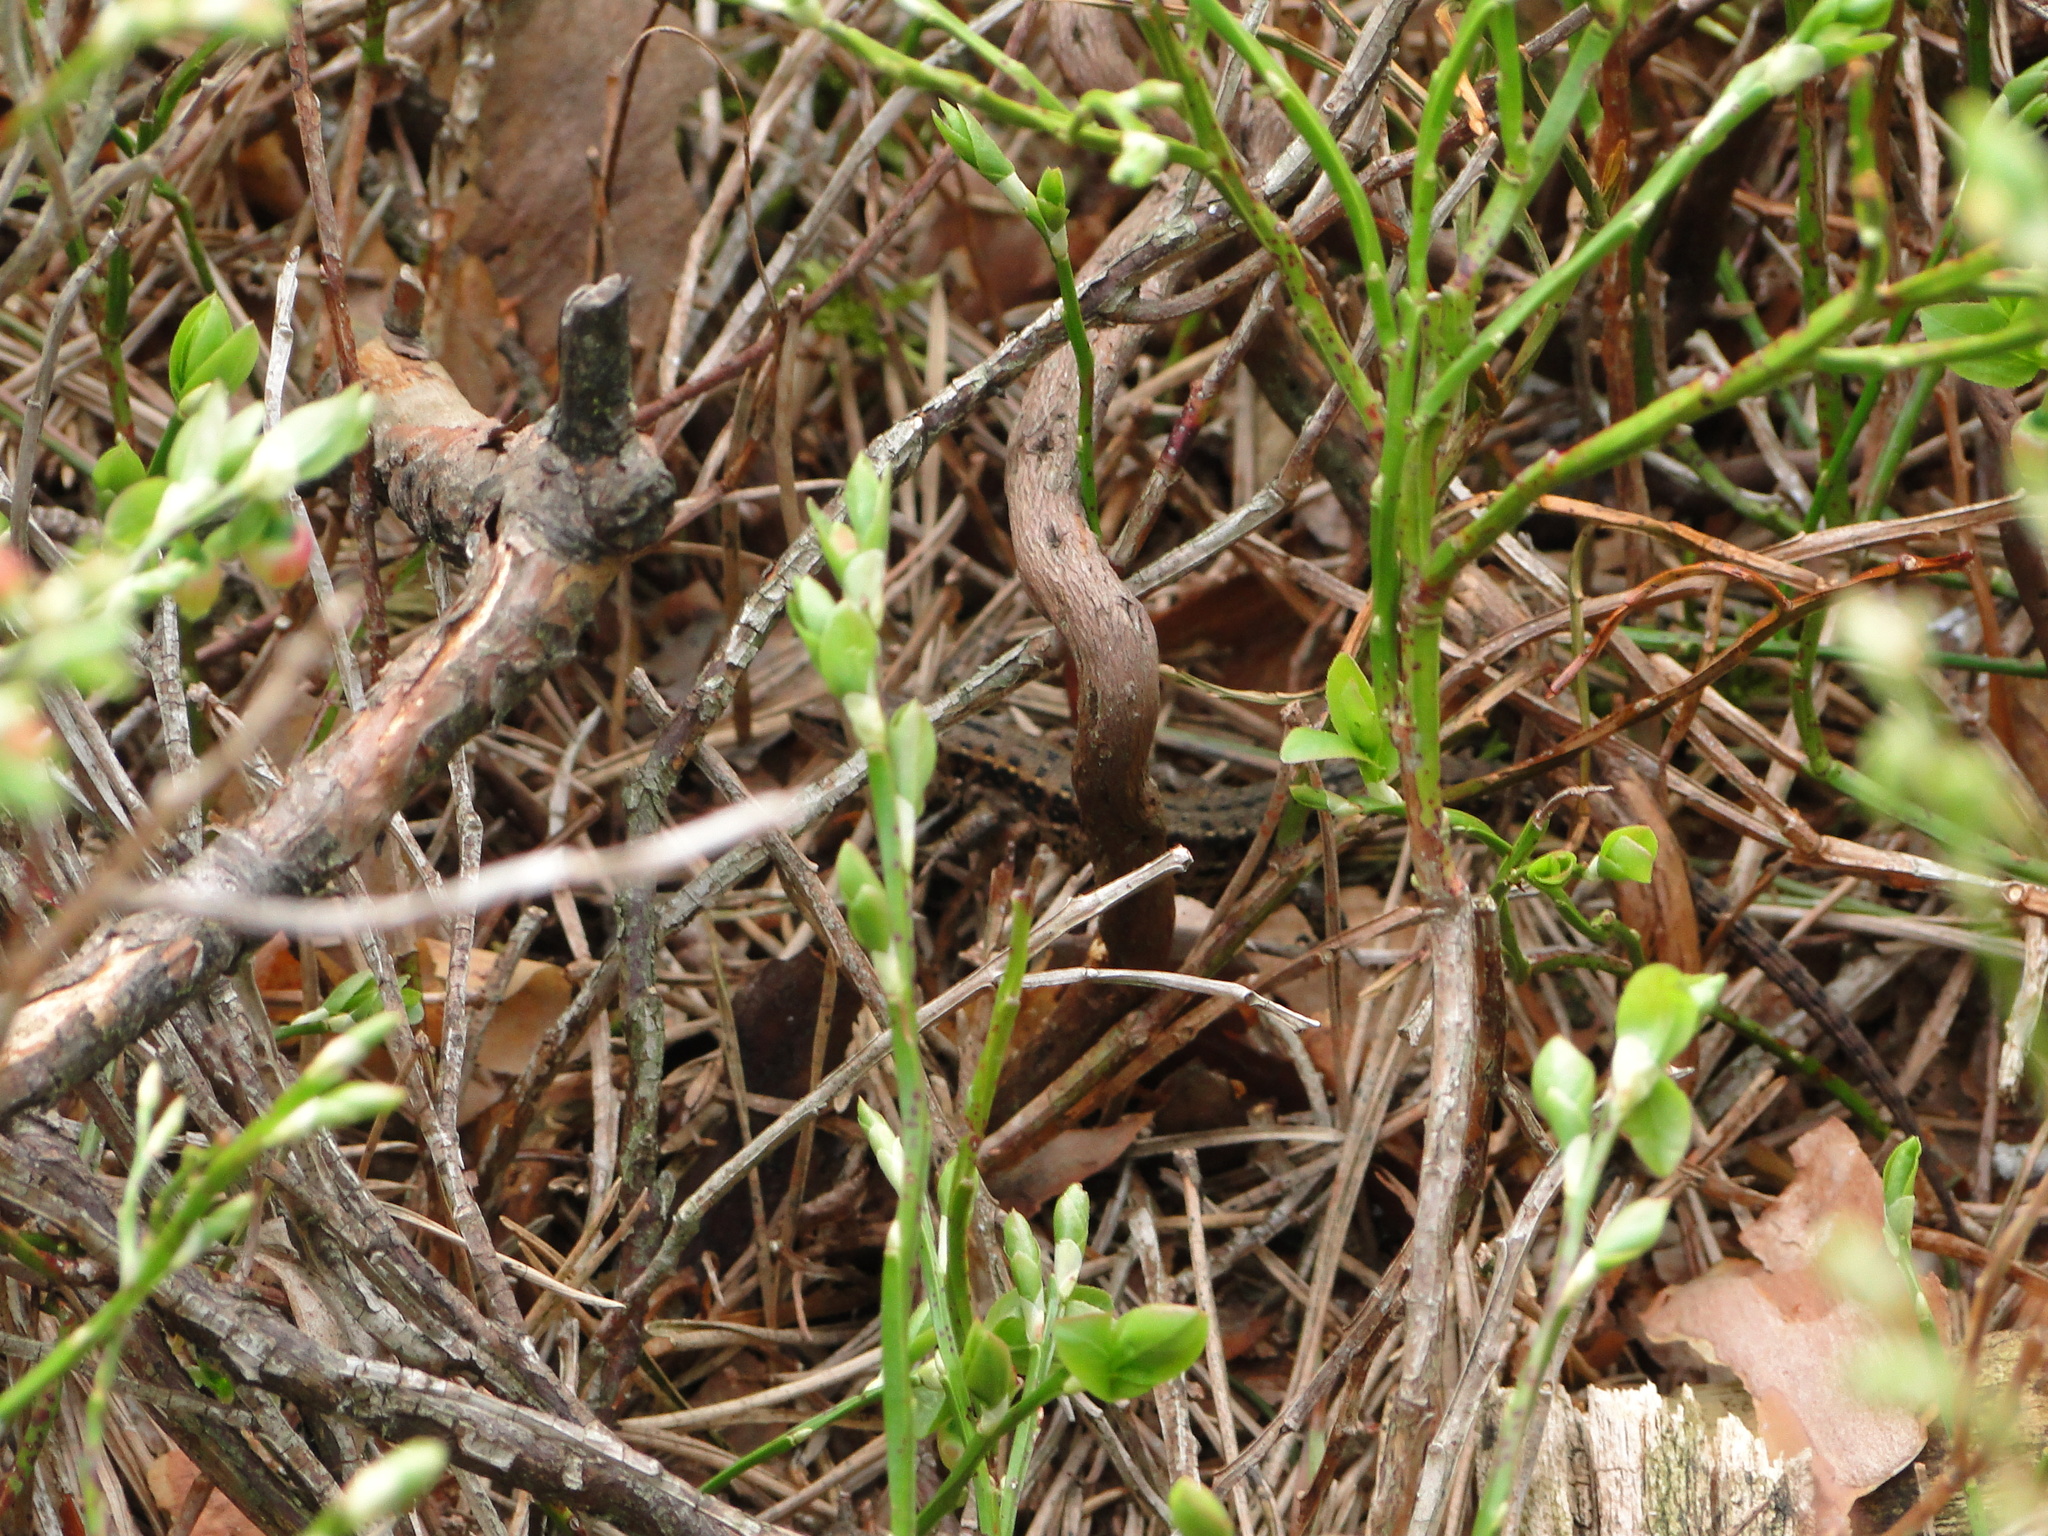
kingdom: Animalia
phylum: Chordata
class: Squamata
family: Lacertidae
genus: Zootoca
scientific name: Zootoca vivipara
